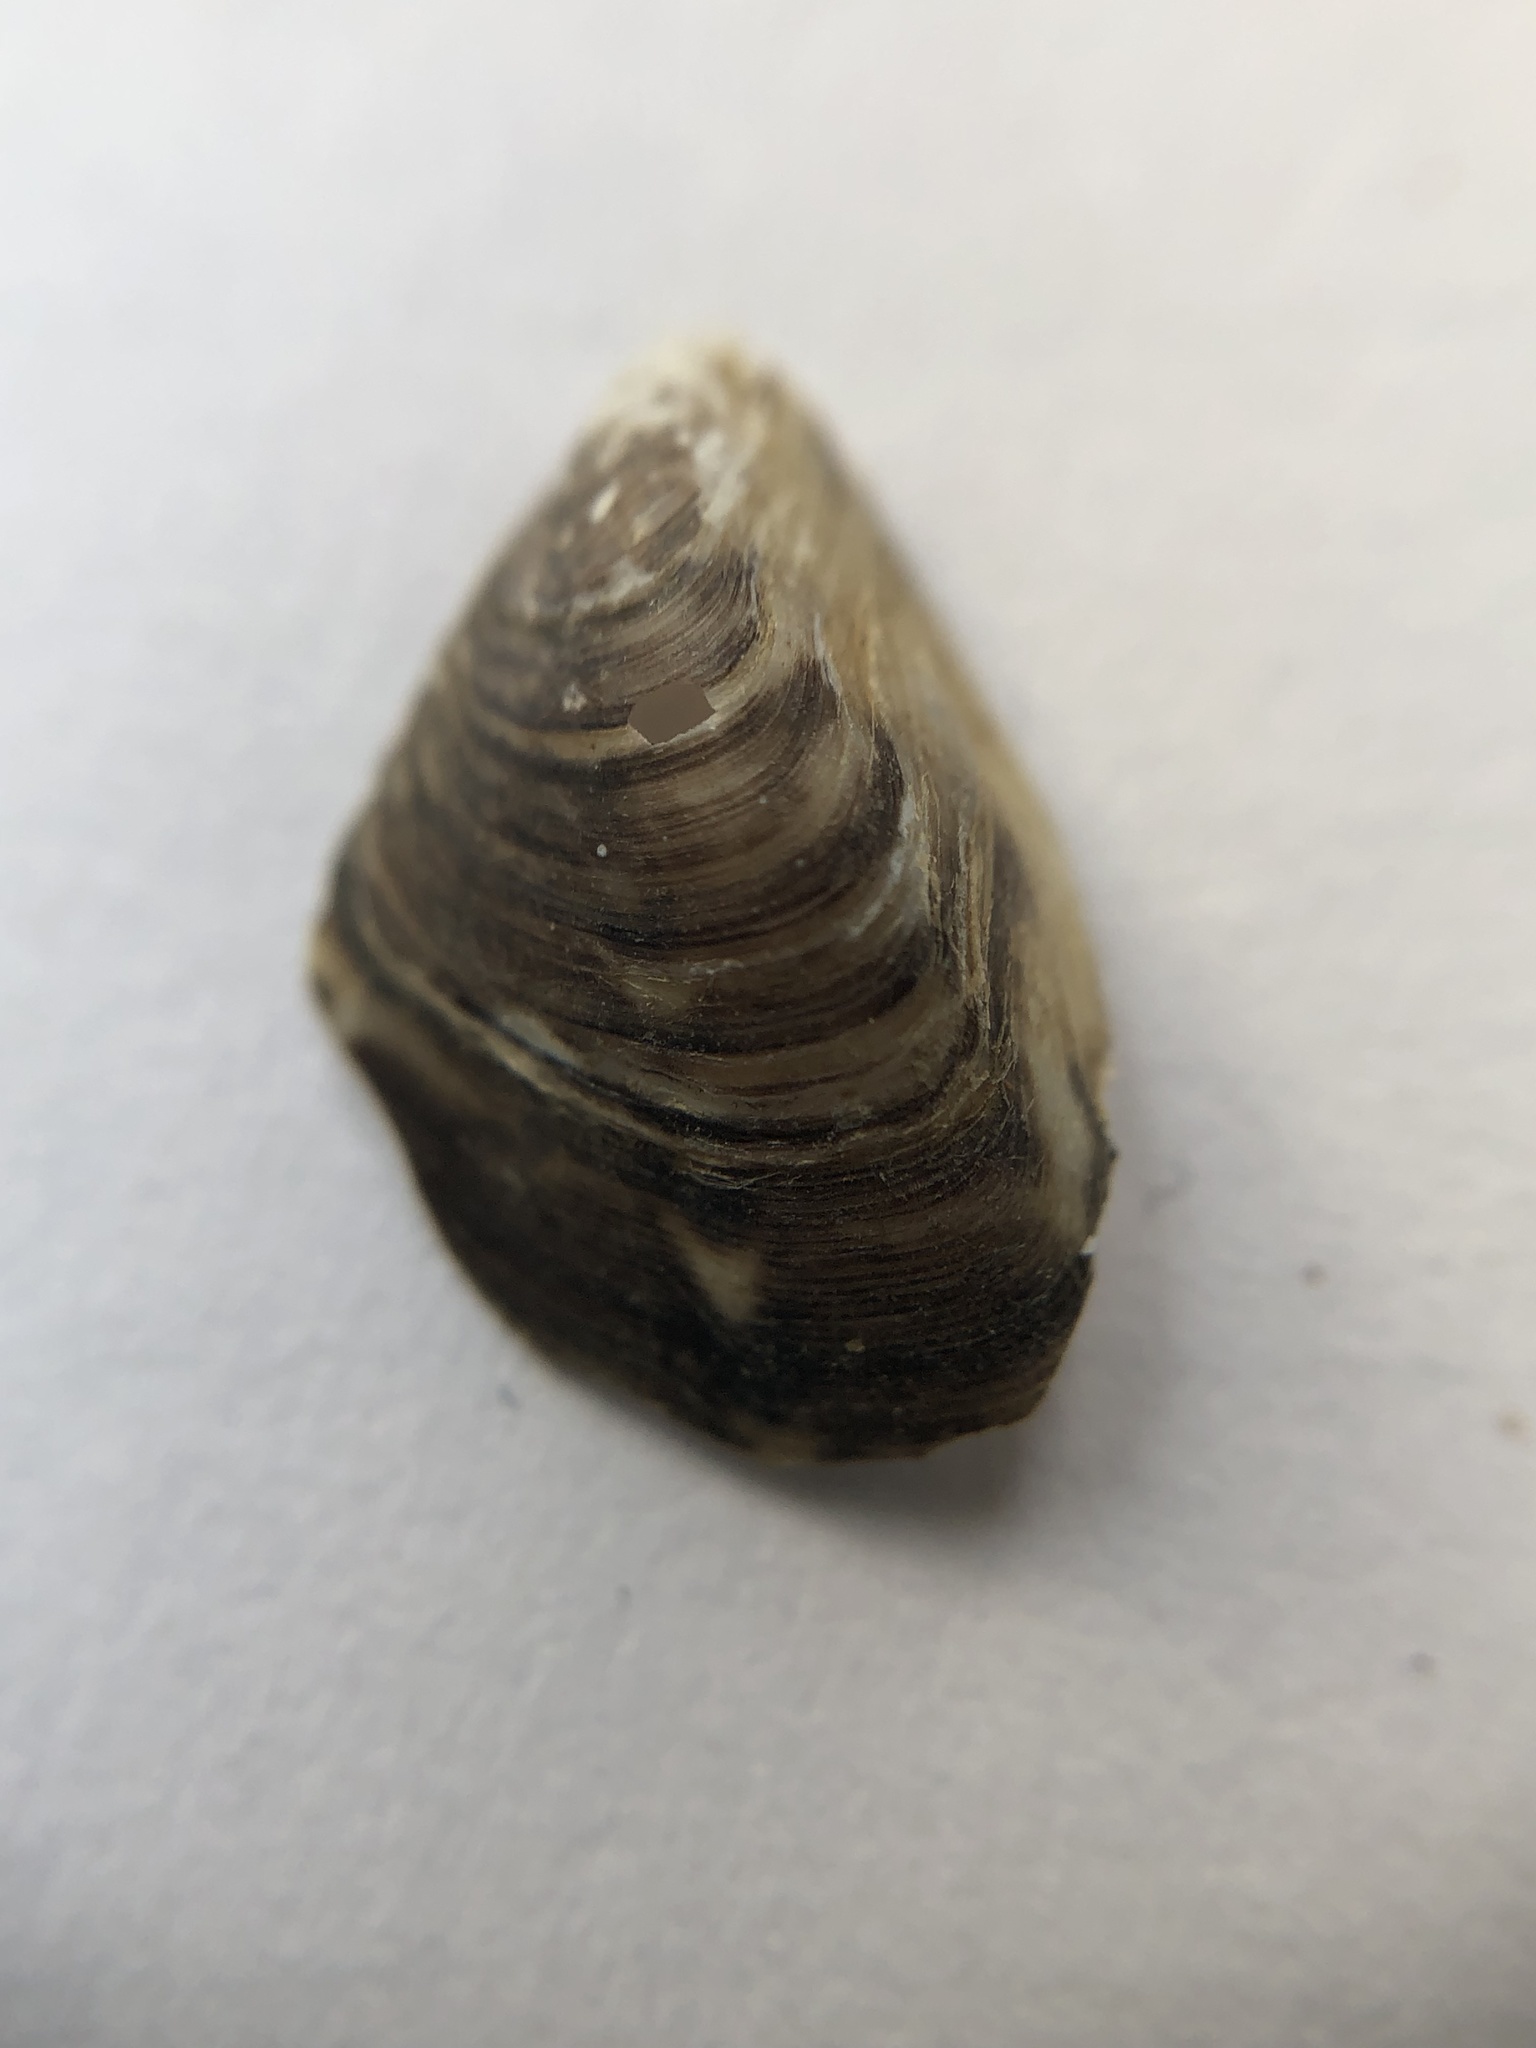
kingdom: Animalia
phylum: Mollusca
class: Bivalvia
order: Myida
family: Dreissenidae
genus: Dreissena
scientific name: Dreissena bugensis
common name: Quagga mussel
